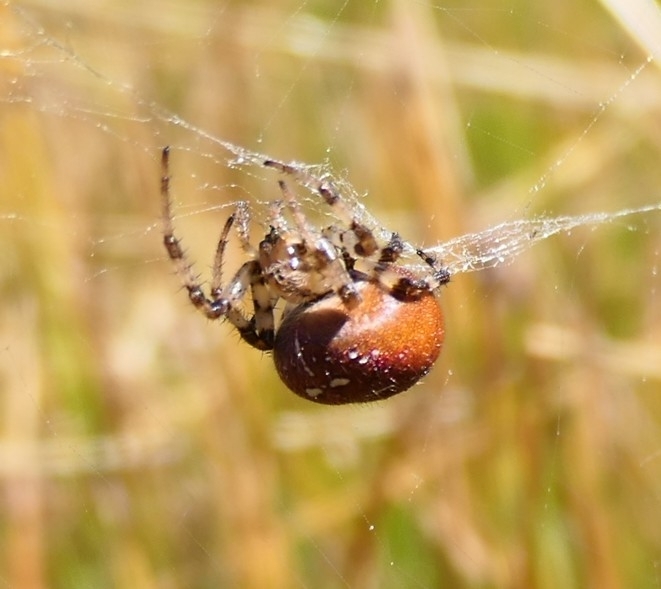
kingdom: Animalia
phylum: Arthropoda
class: Arachnida
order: Araneae
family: Araneidae
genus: Araneus
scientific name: Araneus quadratus
